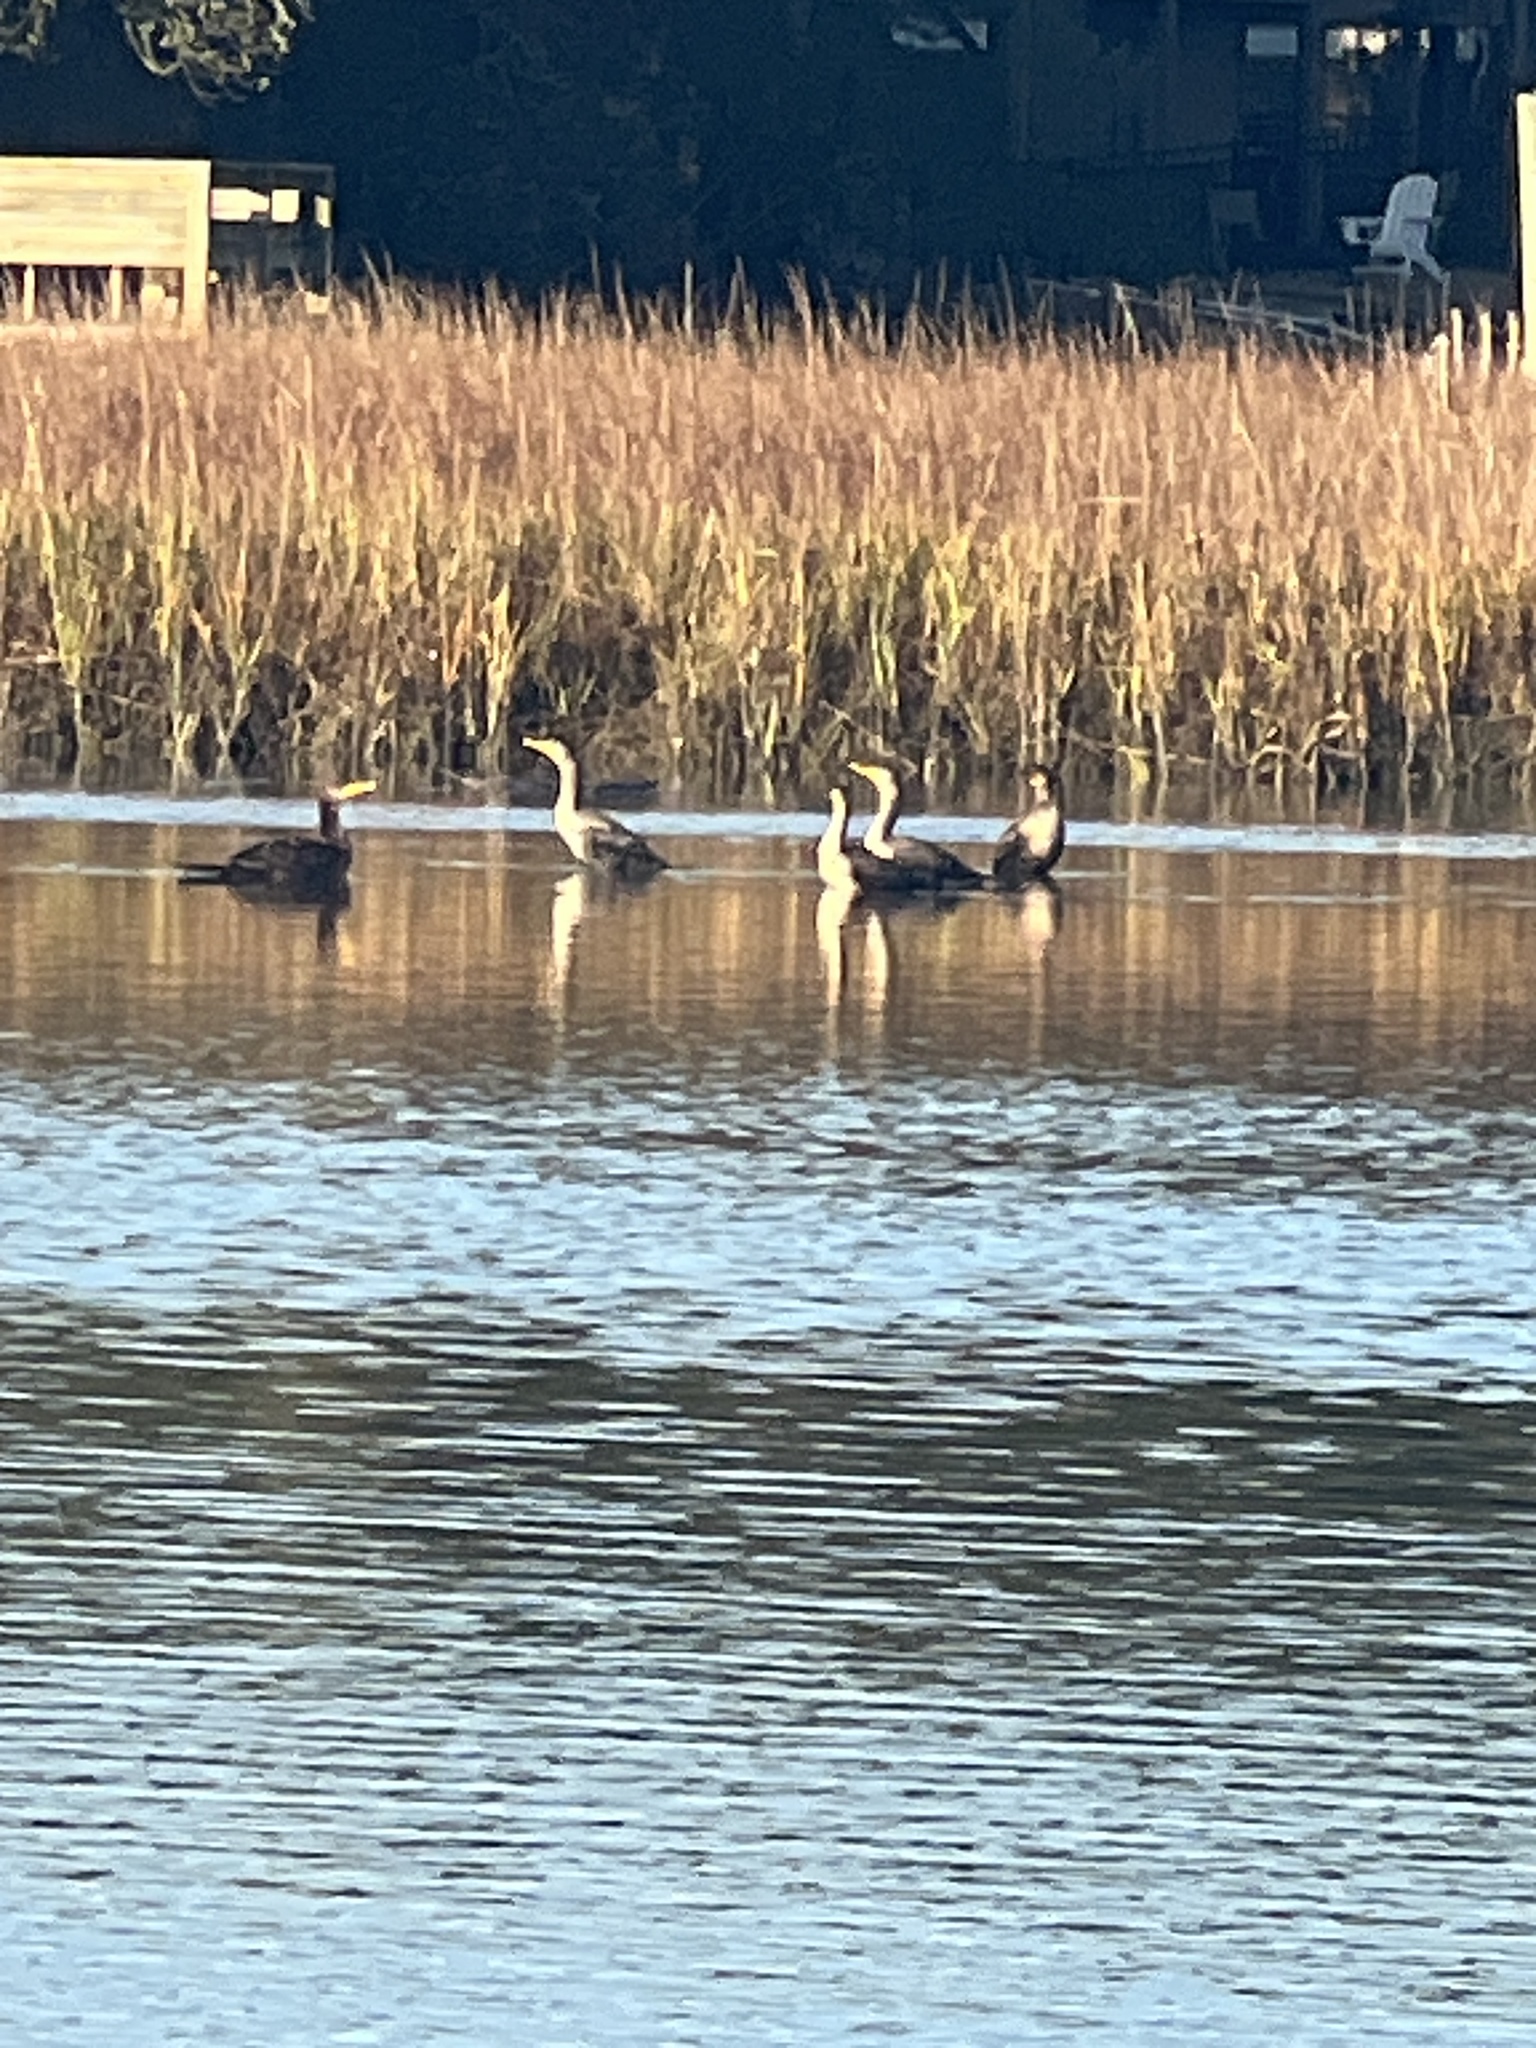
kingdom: Animalia
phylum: Chordata
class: Aves
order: Suliformes
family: Phalacrocoracidae
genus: Phalacrocorax
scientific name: Phalacrocorax auritus
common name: Double-crested cormorant
